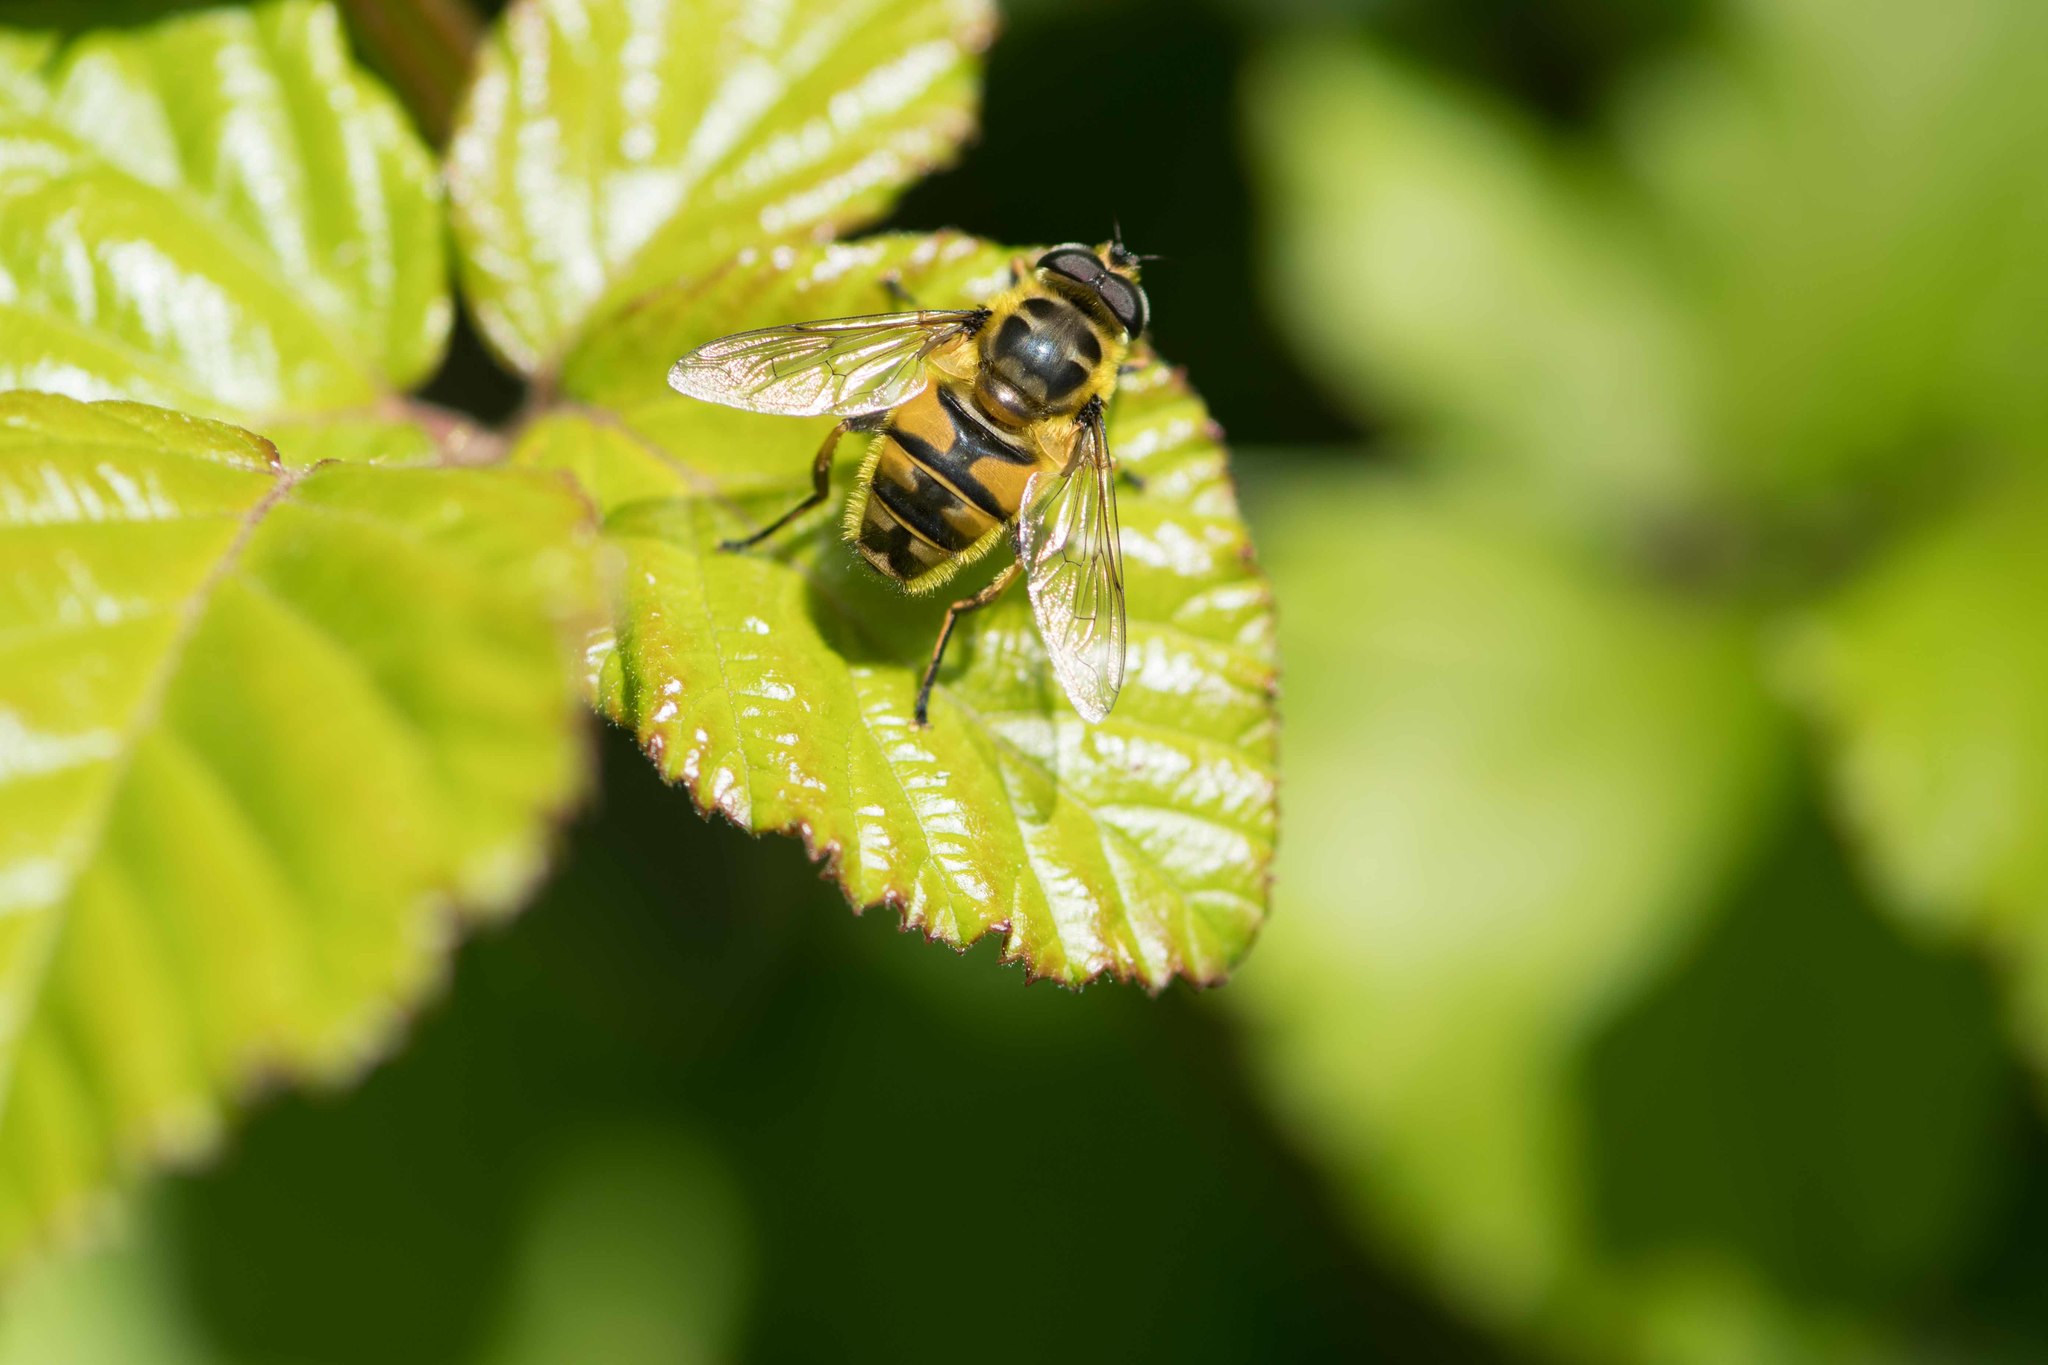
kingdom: Animalia
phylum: Arthropoda
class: Insecta
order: Diptera
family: Syrphidae
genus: Myathropa
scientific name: Myathropa florea
